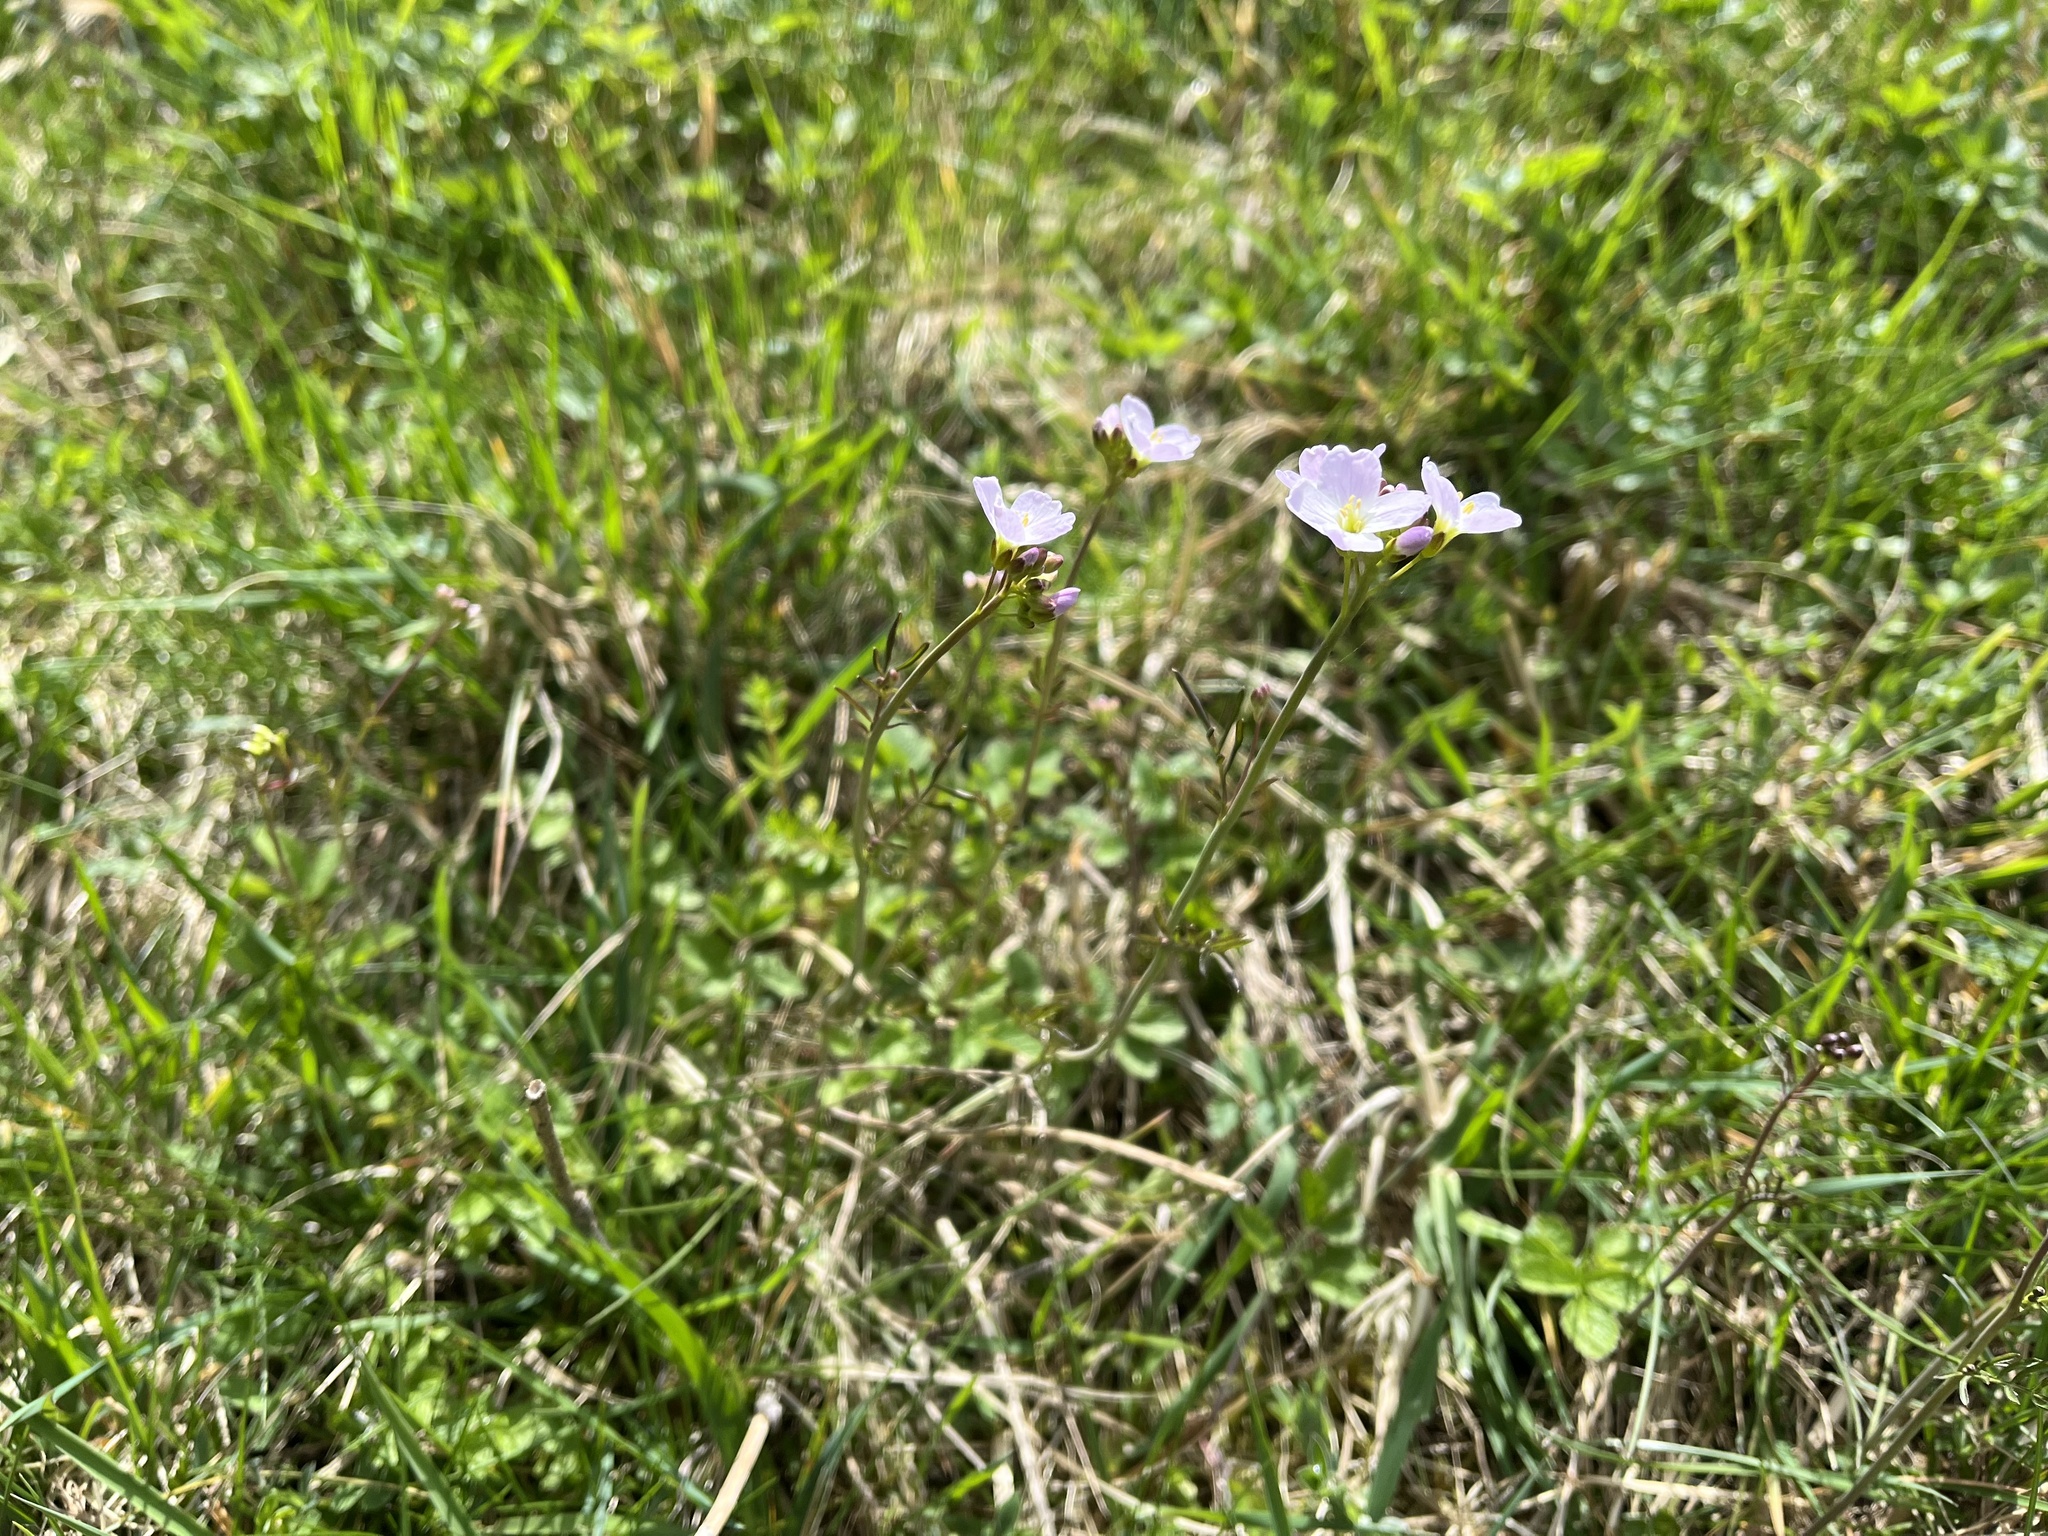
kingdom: Plantae
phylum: Tracheophyta
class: Magnoliopsida
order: Brassicales
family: Brassicaceae
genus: Cardamine
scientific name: Cardamine pratensis
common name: Cuckoo flower
